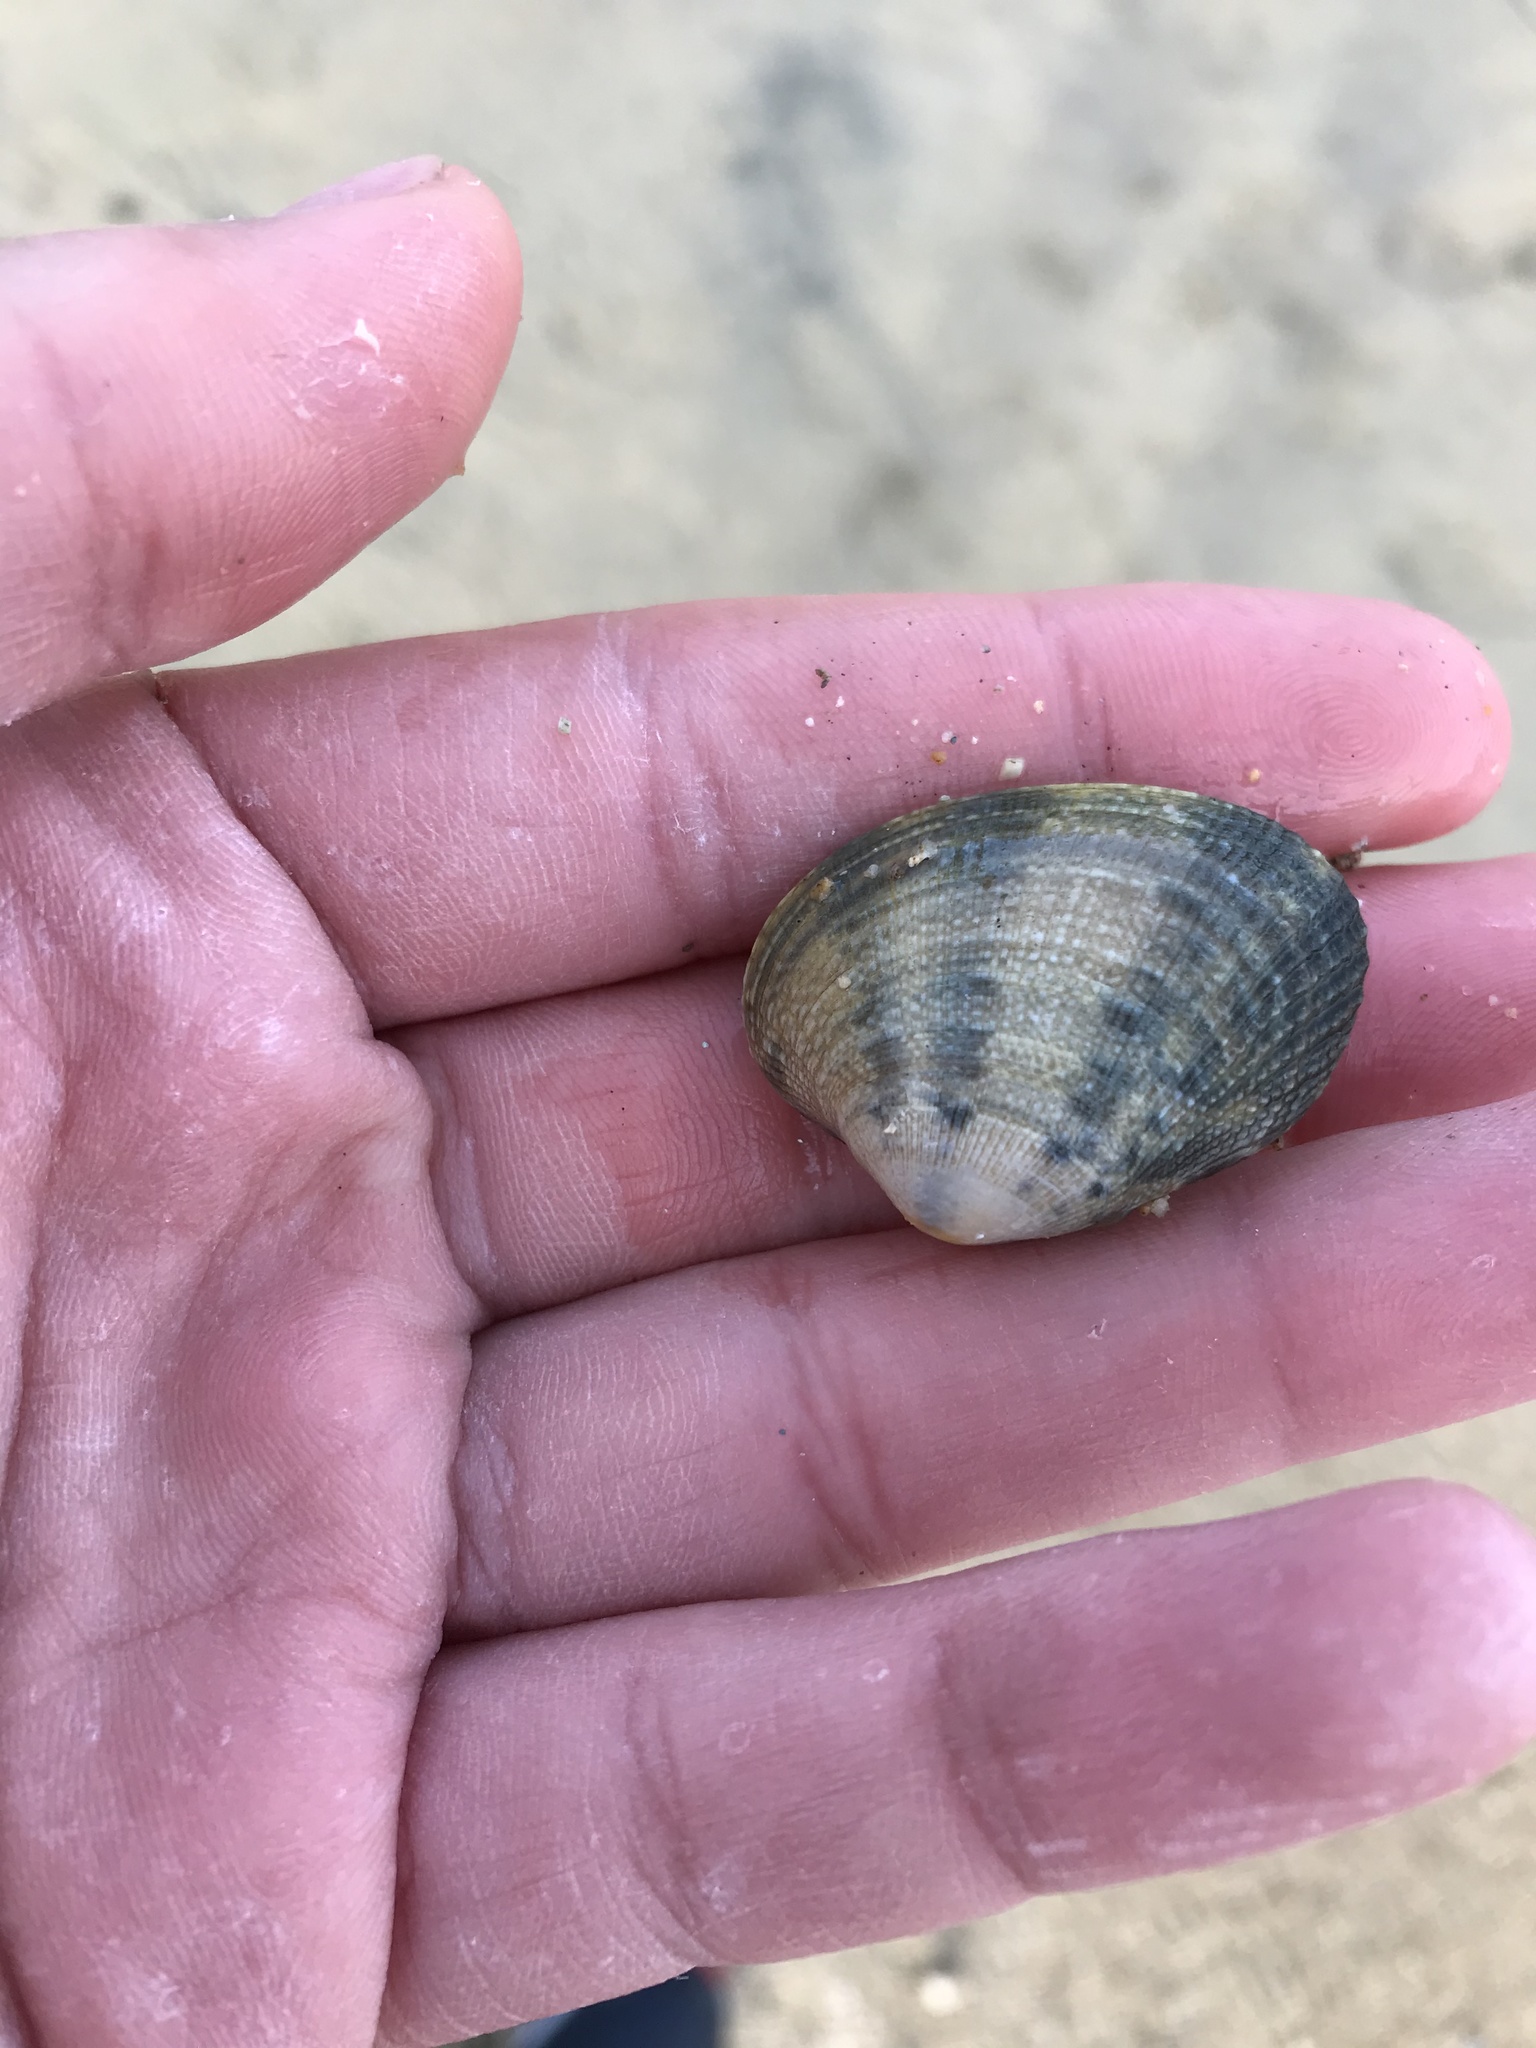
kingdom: Animalia
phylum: Mollusca
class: Bivalvia
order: Venerida
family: Veneridae
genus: Ruditapes
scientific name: Ruditapes philippinarum
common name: Manila clam
